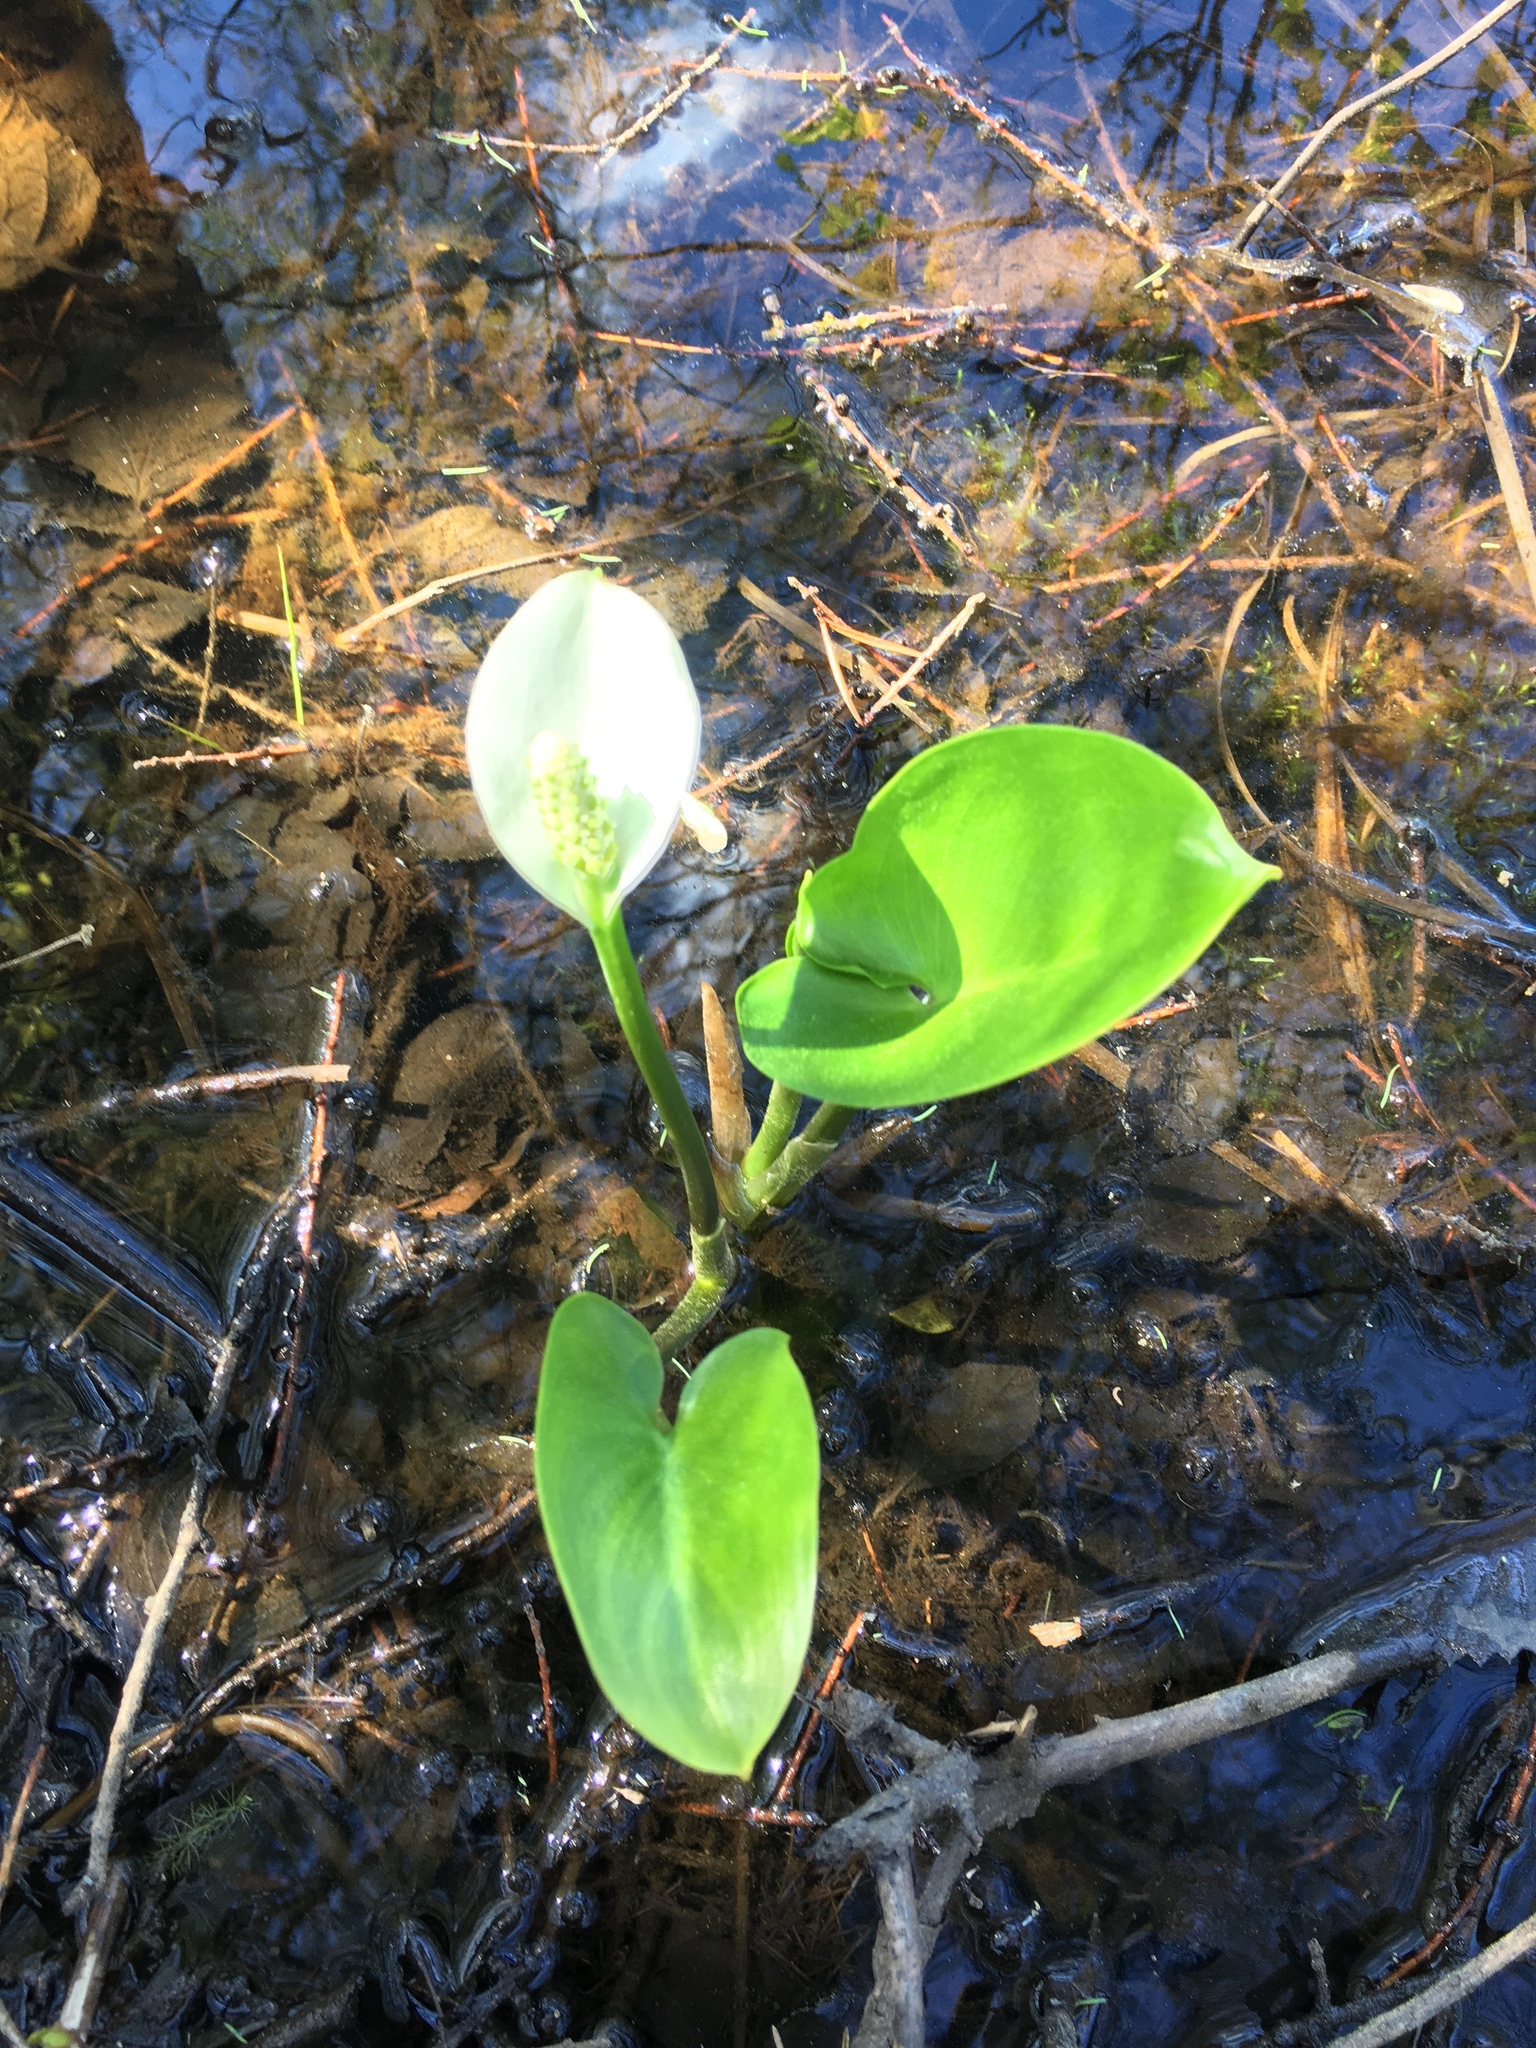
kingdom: Plantae
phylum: Tracheophyta
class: Liliopsida
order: Alismatales
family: Araceae
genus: Calla
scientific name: Calla palustris
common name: Bog arum
